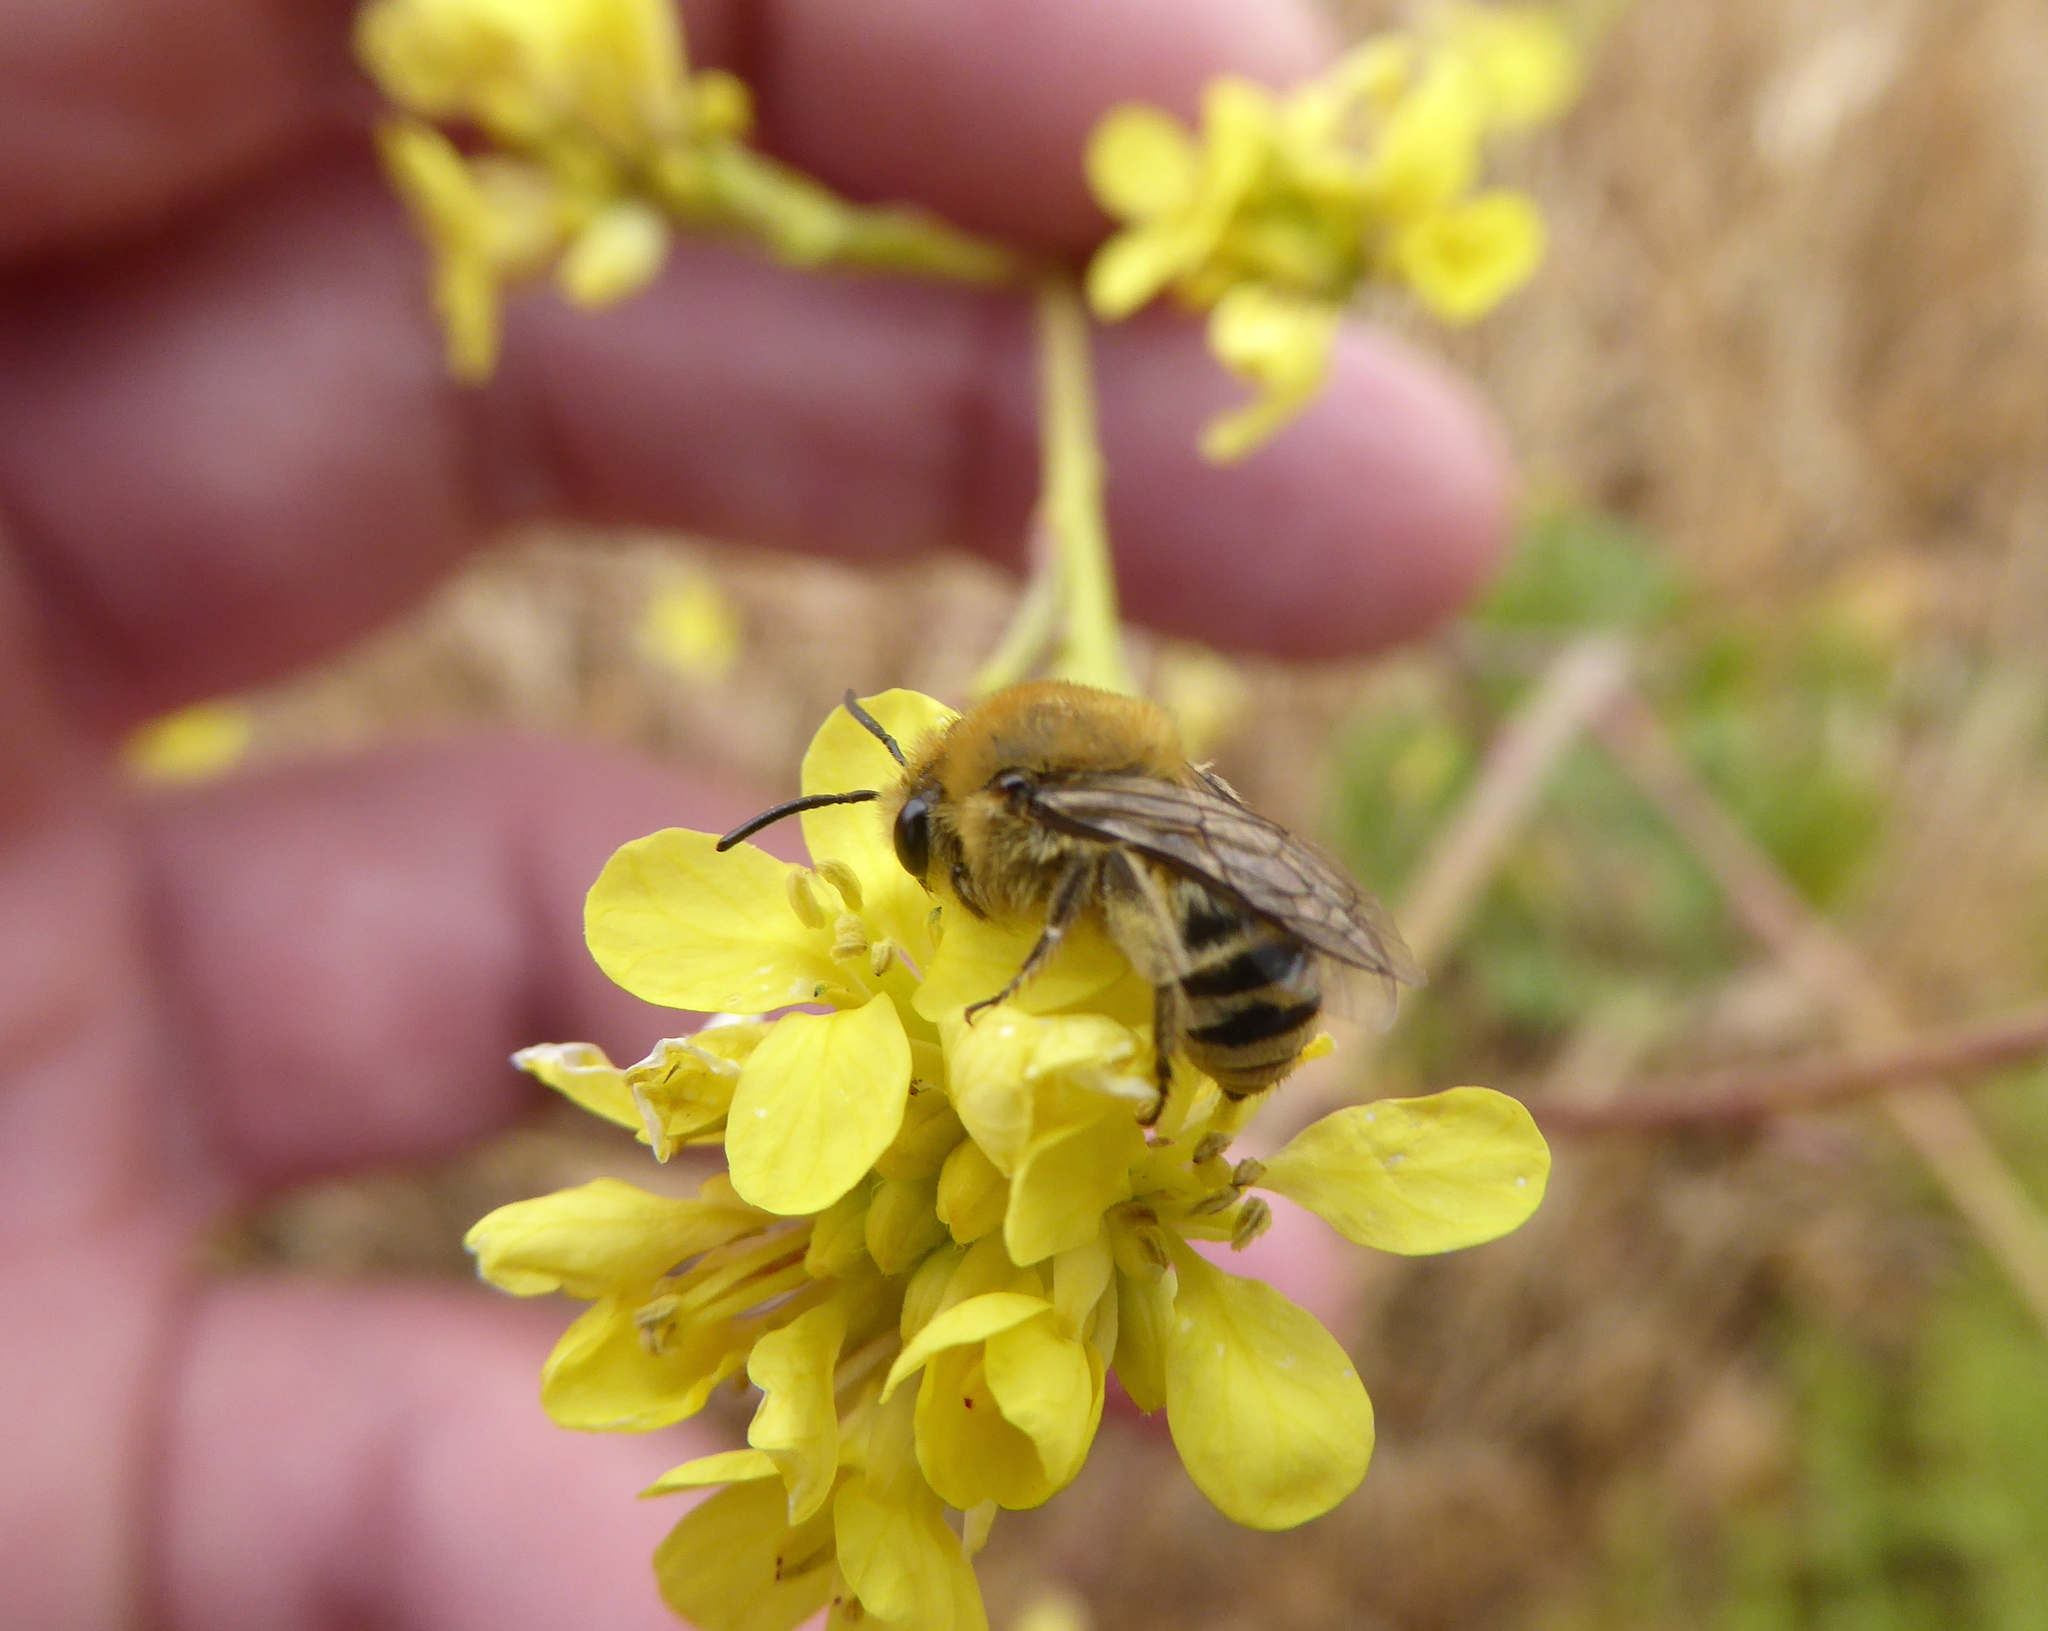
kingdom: Animalia
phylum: Arthropoda
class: Insecta
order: Hymenoptera
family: Colletidae
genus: Colletes
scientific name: Colletes
